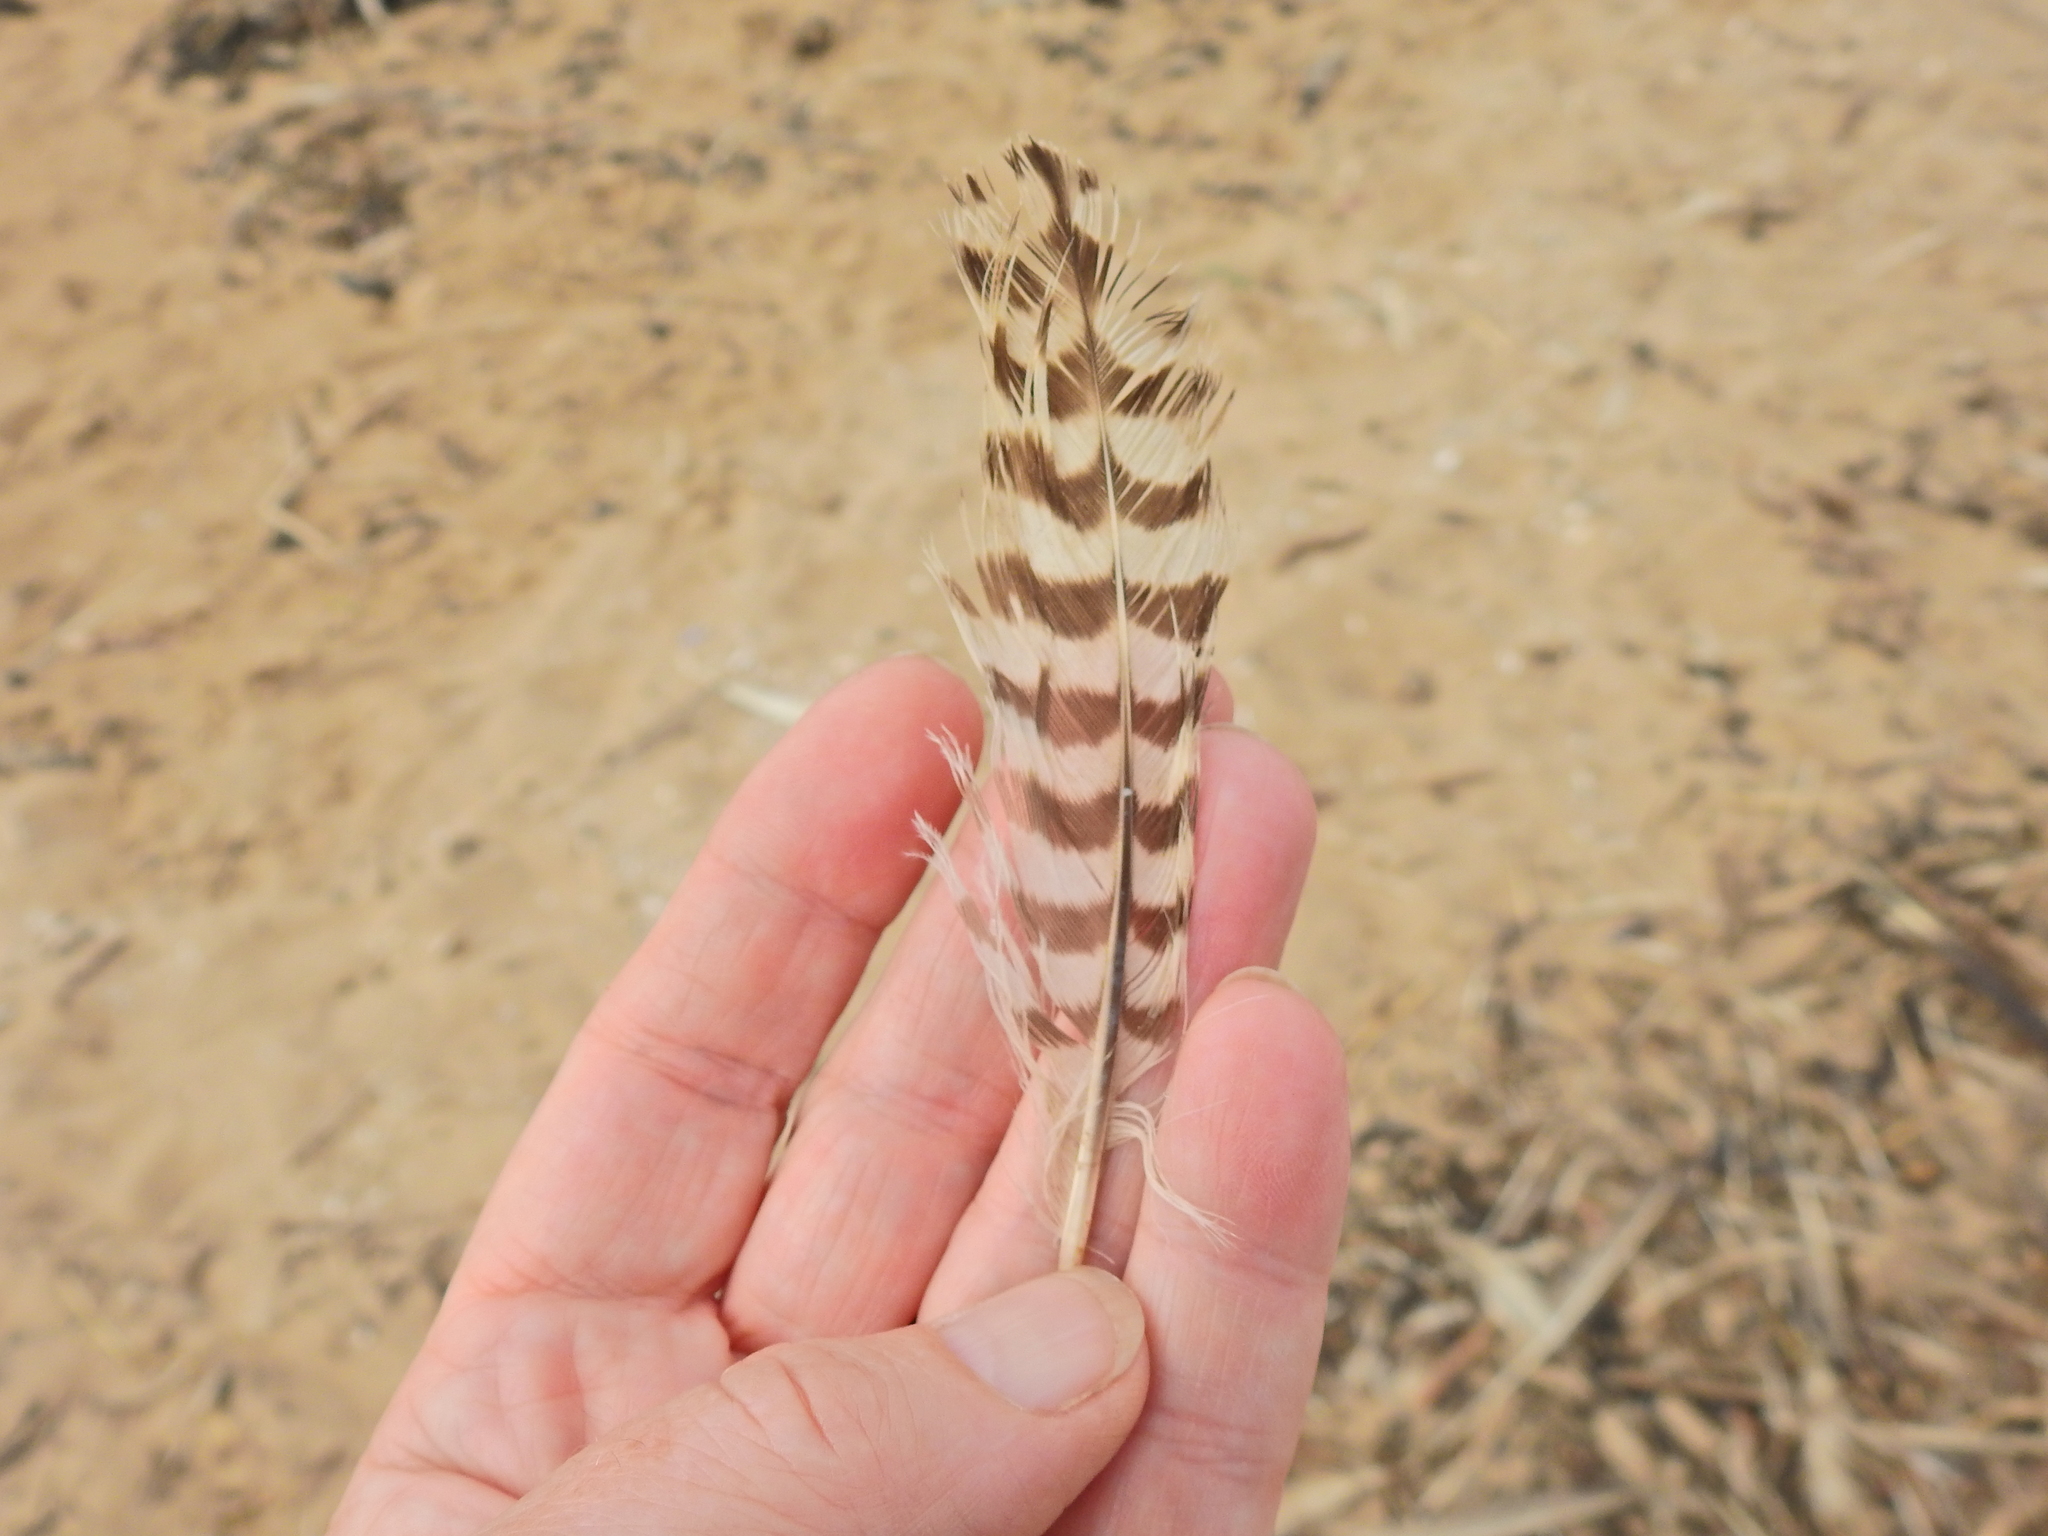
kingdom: Animalia
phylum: Chordata
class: Aves
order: Charadriiformes
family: Scolopacidae
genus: Numenius
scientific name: Numenius arquata
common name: Eurasian curlew
